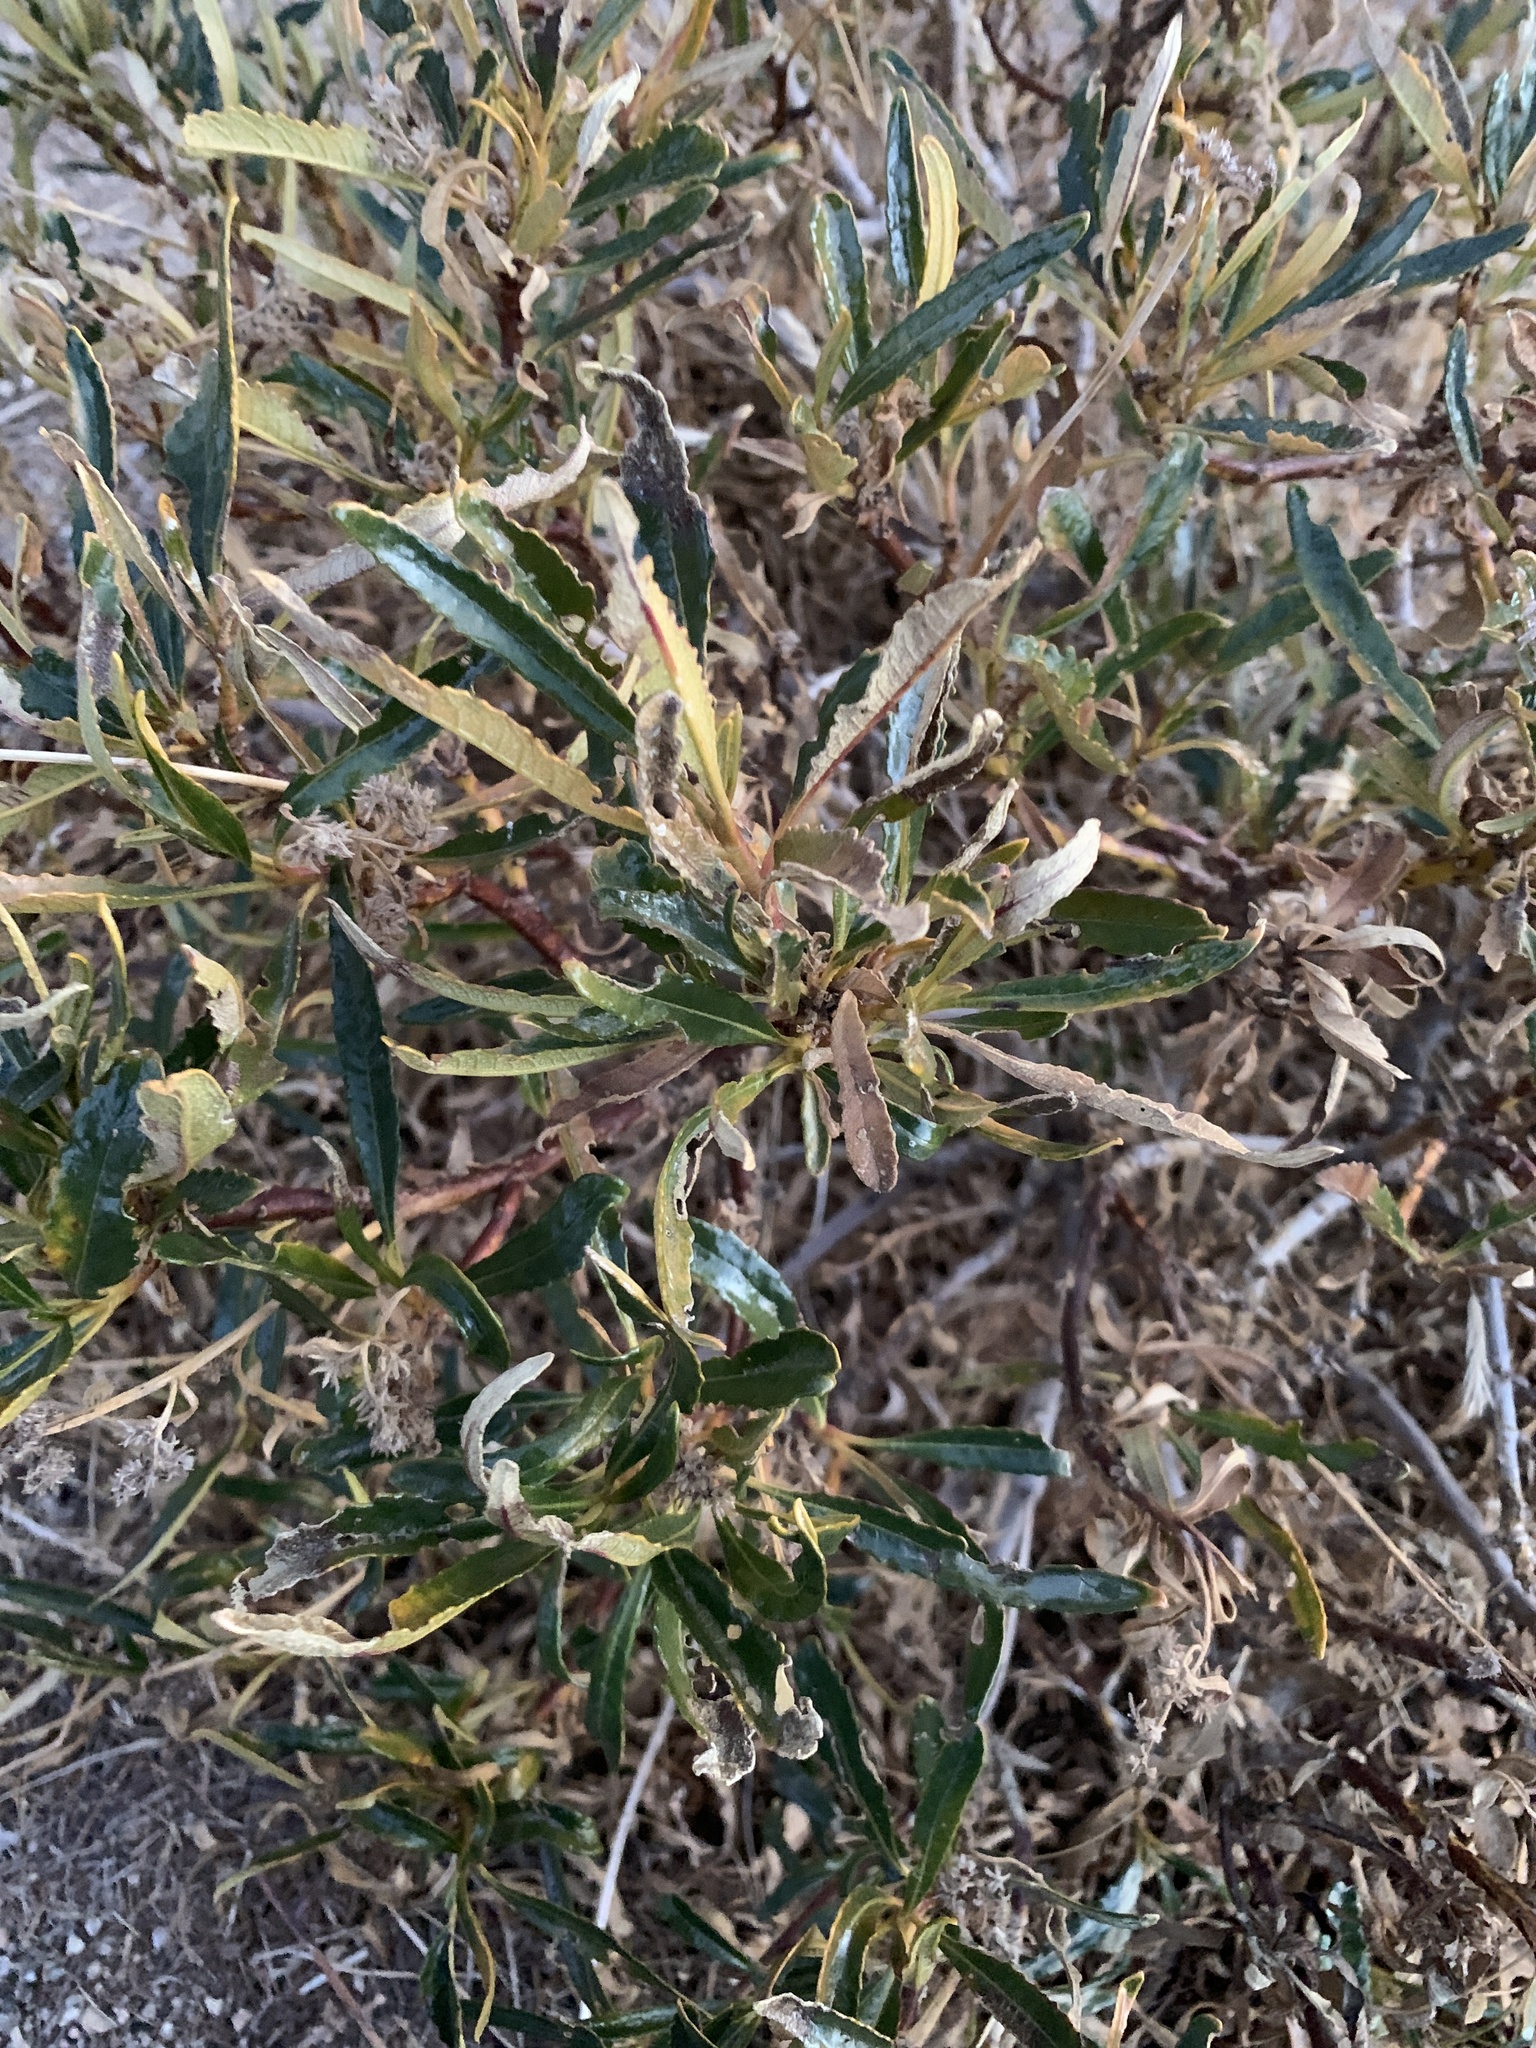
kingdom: Plantae
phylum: Tracheophyta
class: Magnoliopsida
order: Boraginales
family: Namaceae
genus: Eriodictyon
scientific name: Eriodictyon trichocalyx
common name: Hairy yerba-santa
